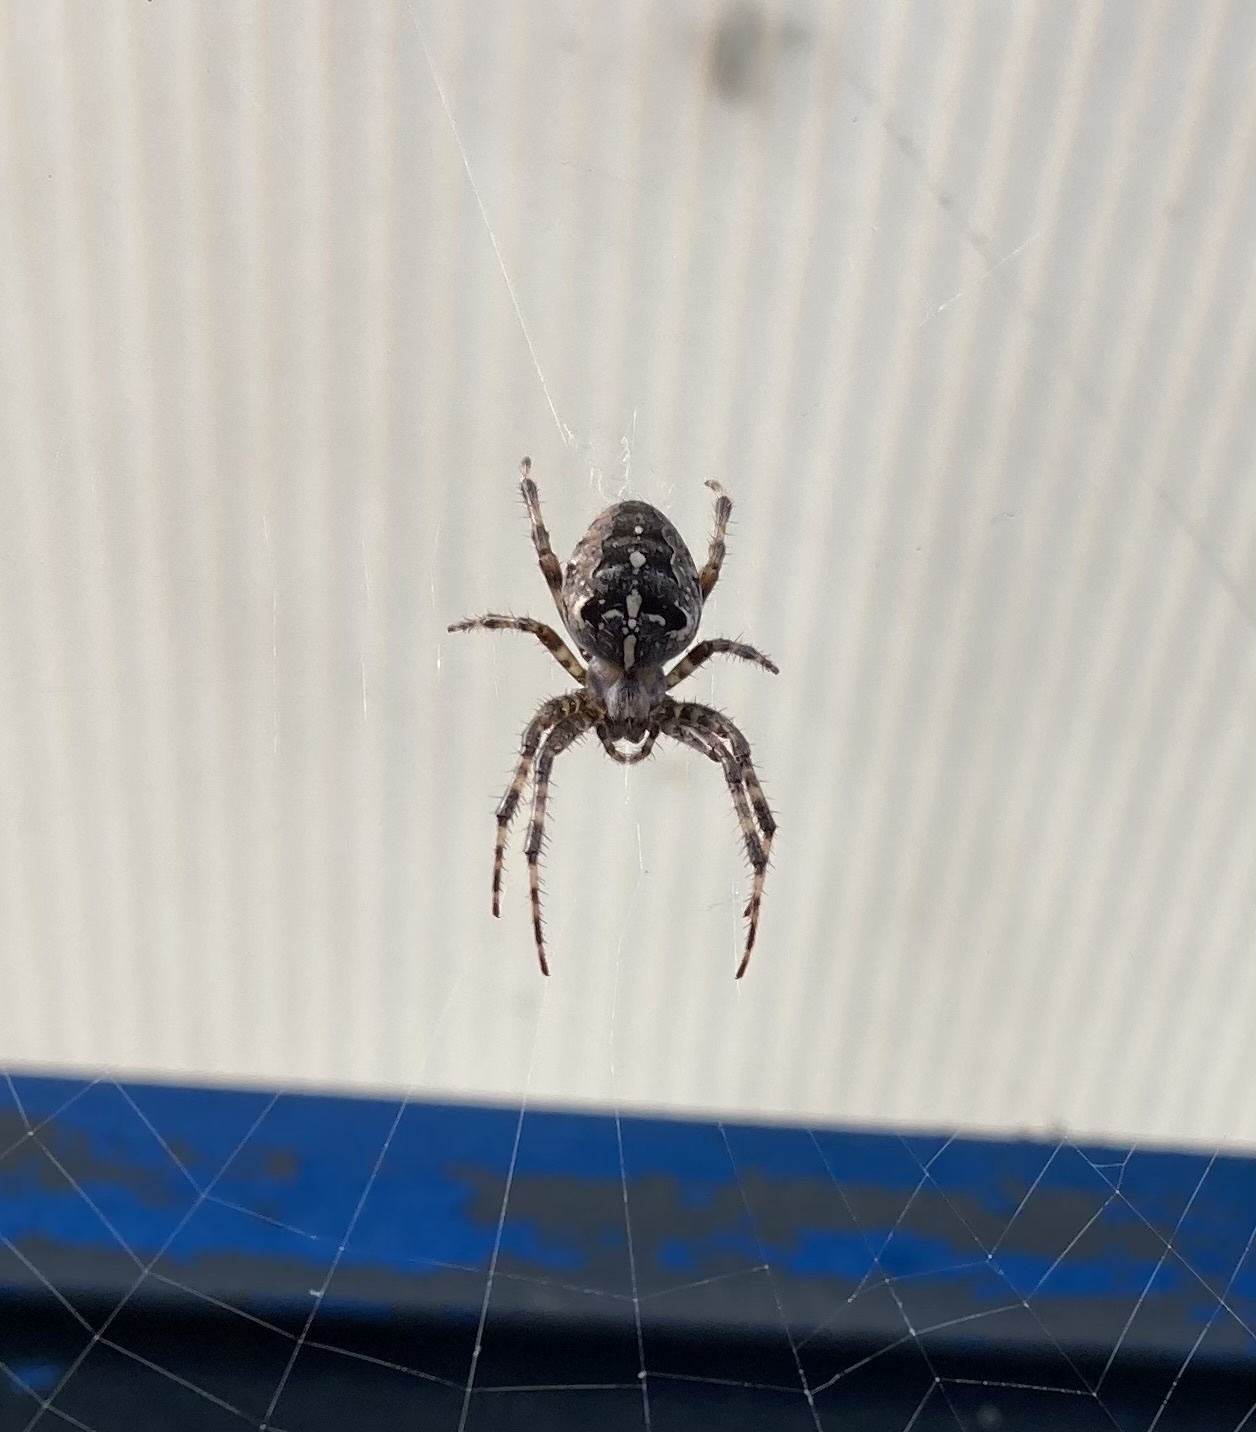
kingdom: Animalia
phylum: Arthropoda
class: Arachnida
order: Araneae
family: Araneidae
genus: Araneus
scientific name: Araneus diadematus
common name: Cross orbweaver
